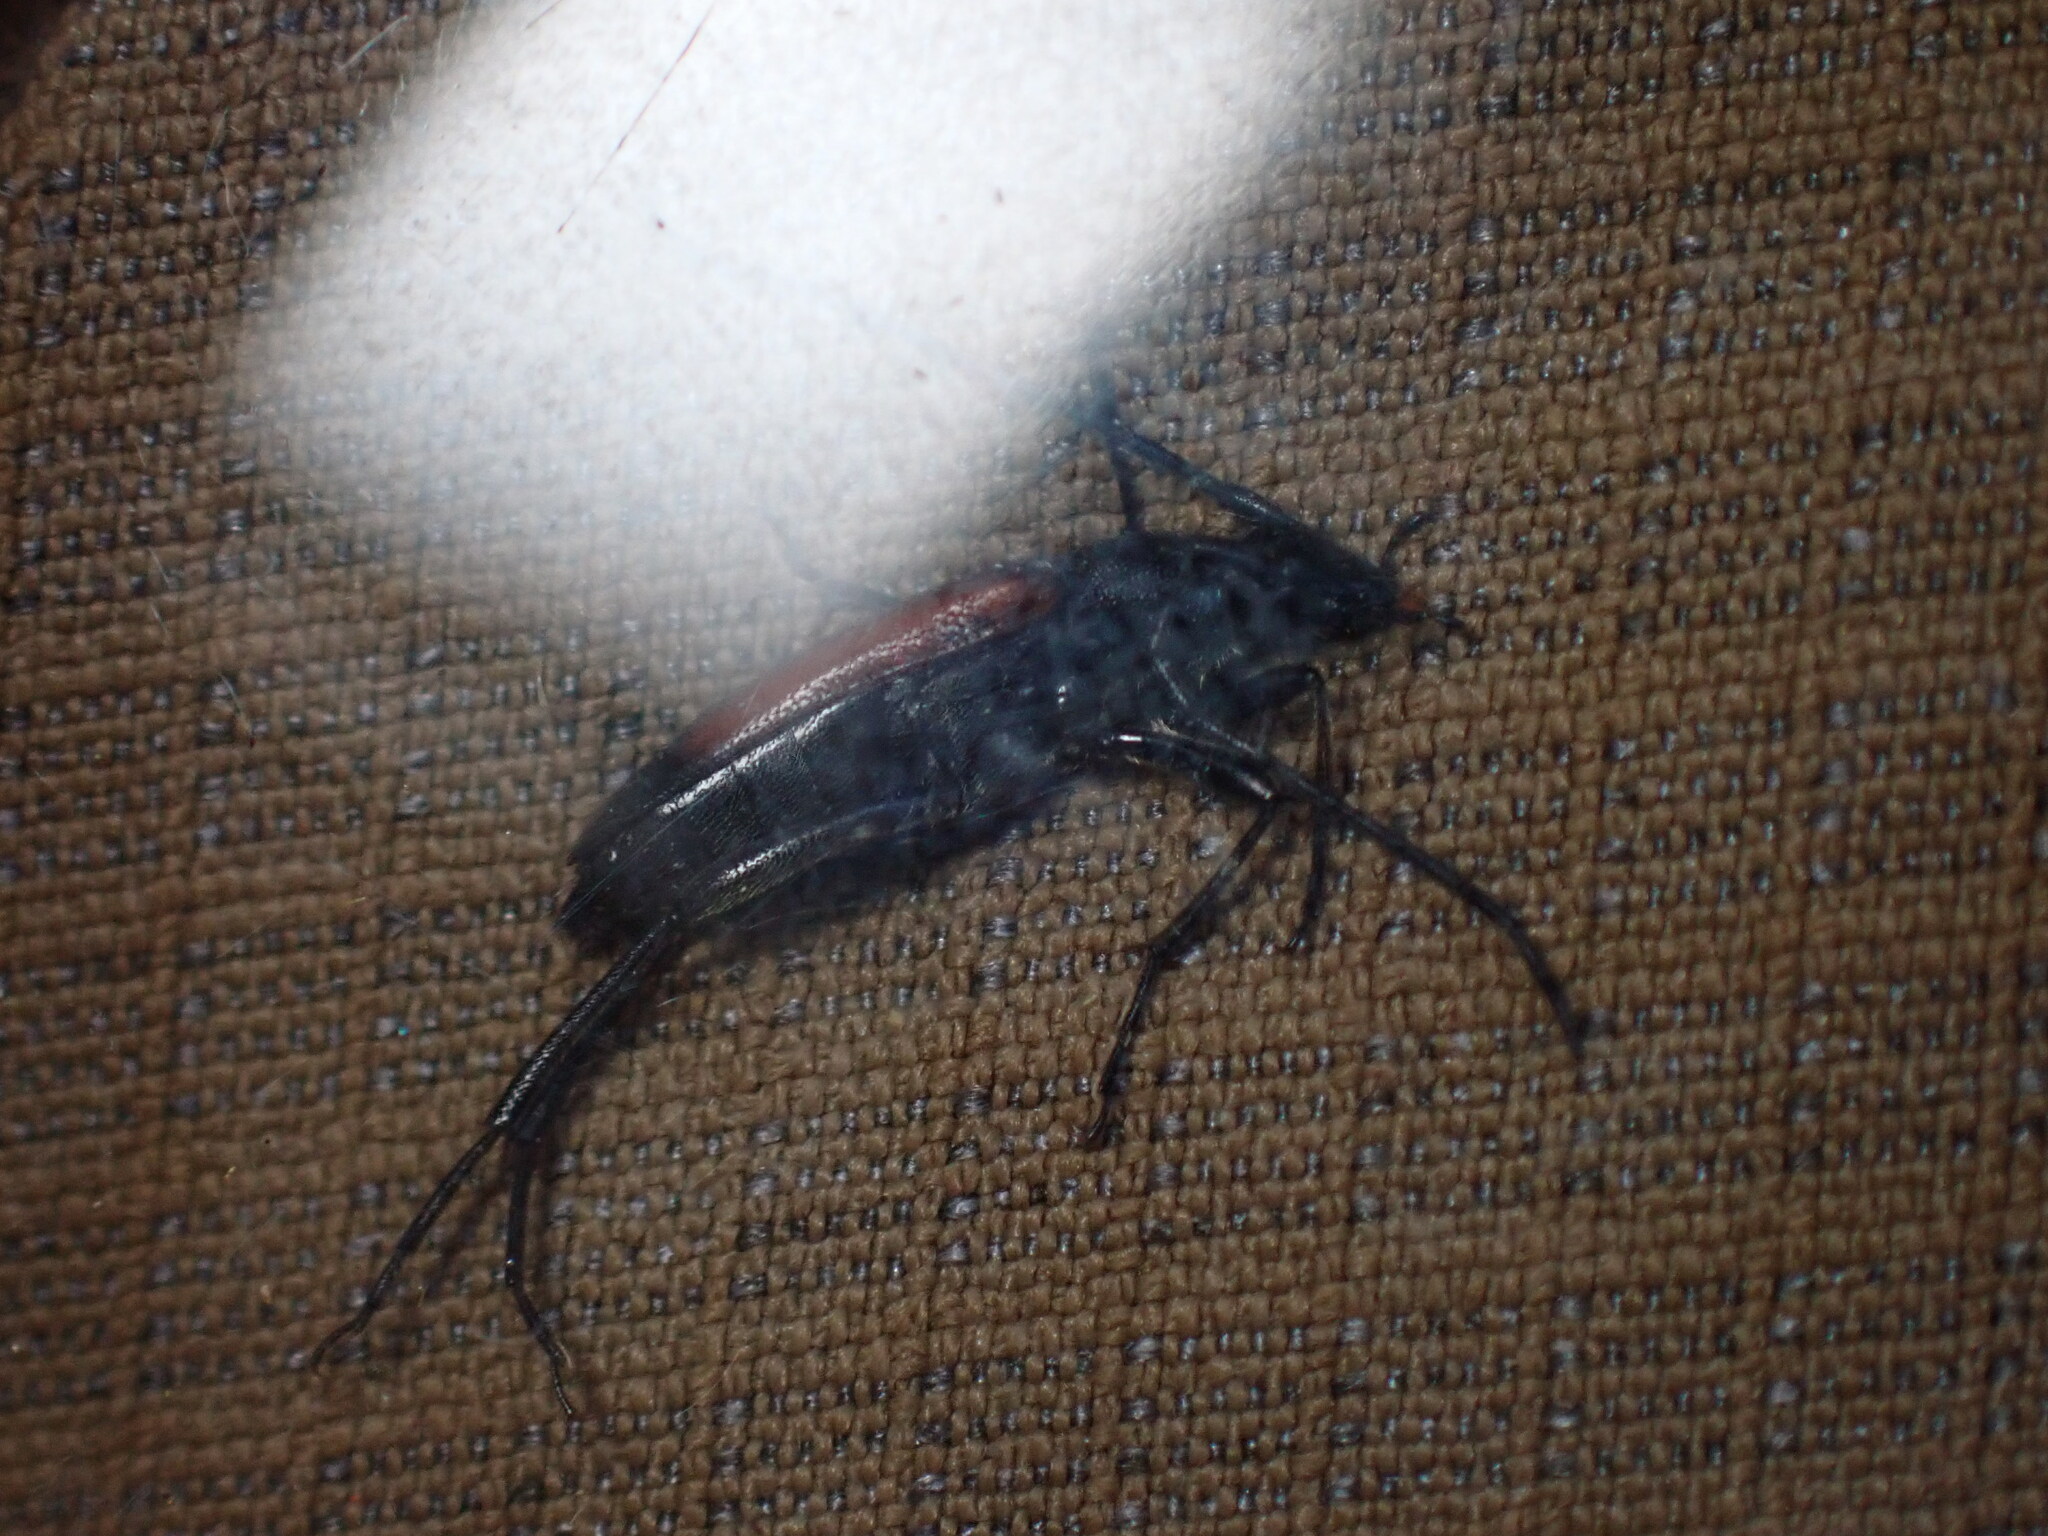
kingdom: Animalia
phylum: Arthropoda
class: Insecta
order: Coleoptera
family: Cerambycidae
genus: Stenurella
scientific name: Stenurella melanura
